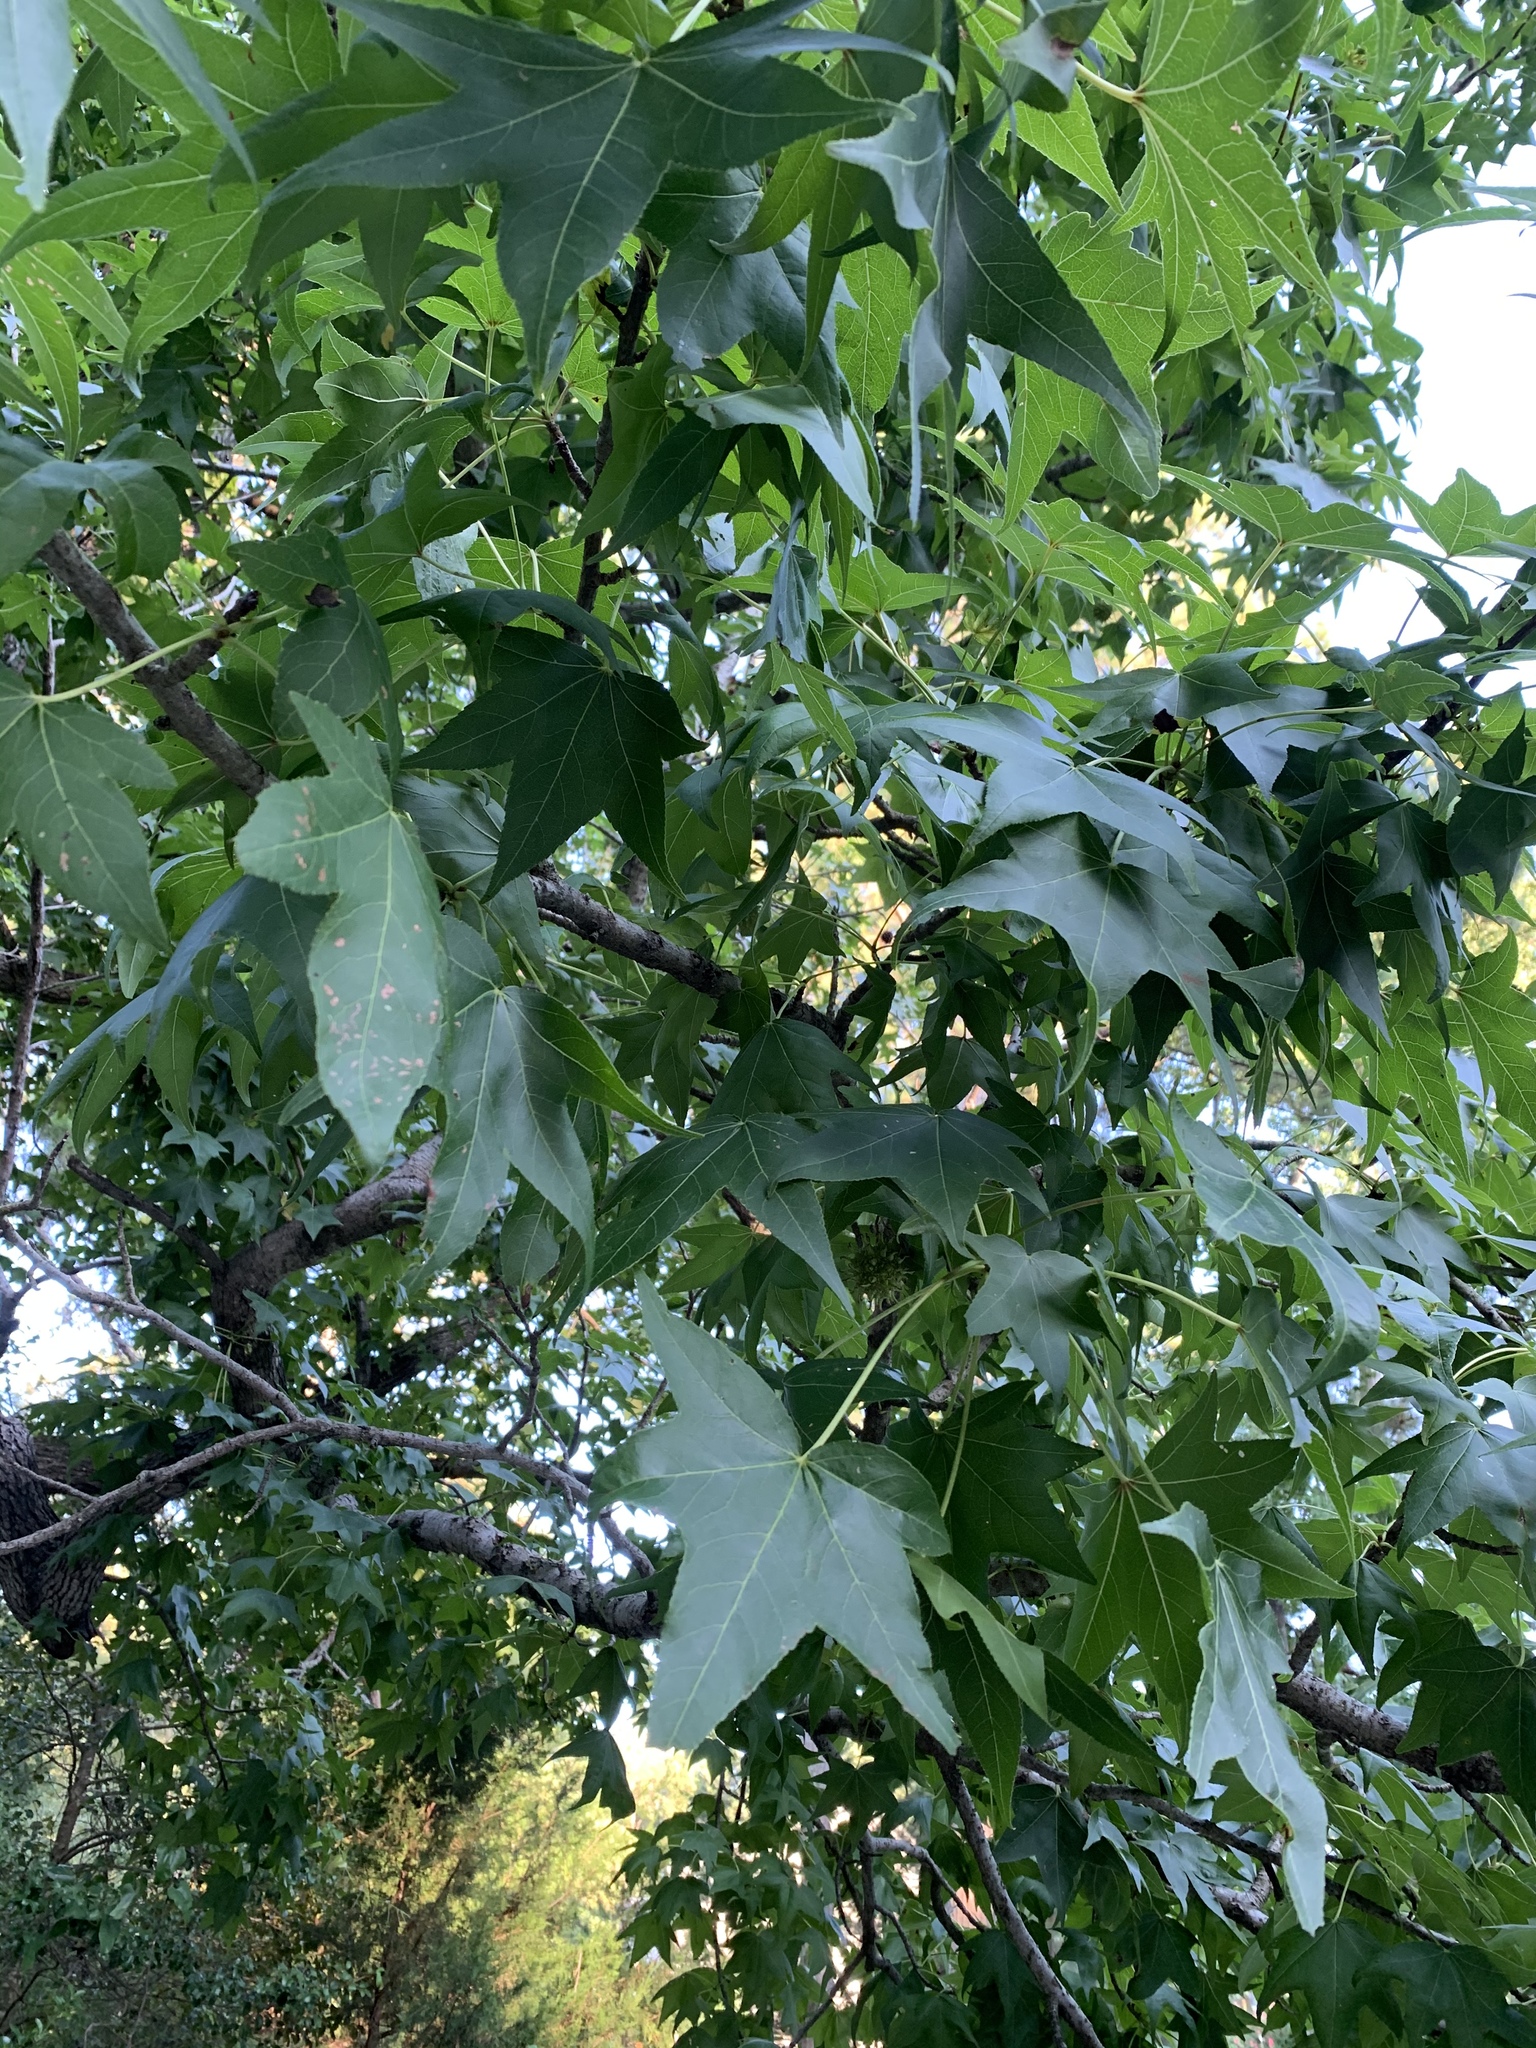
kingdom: Plantae
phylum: Tracheophyta
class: Magnoliopsida
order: Saxifragales
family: Altingiaceae
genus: Liquidambar
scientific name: Liquidambar styraciflua
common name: Sweet gum
